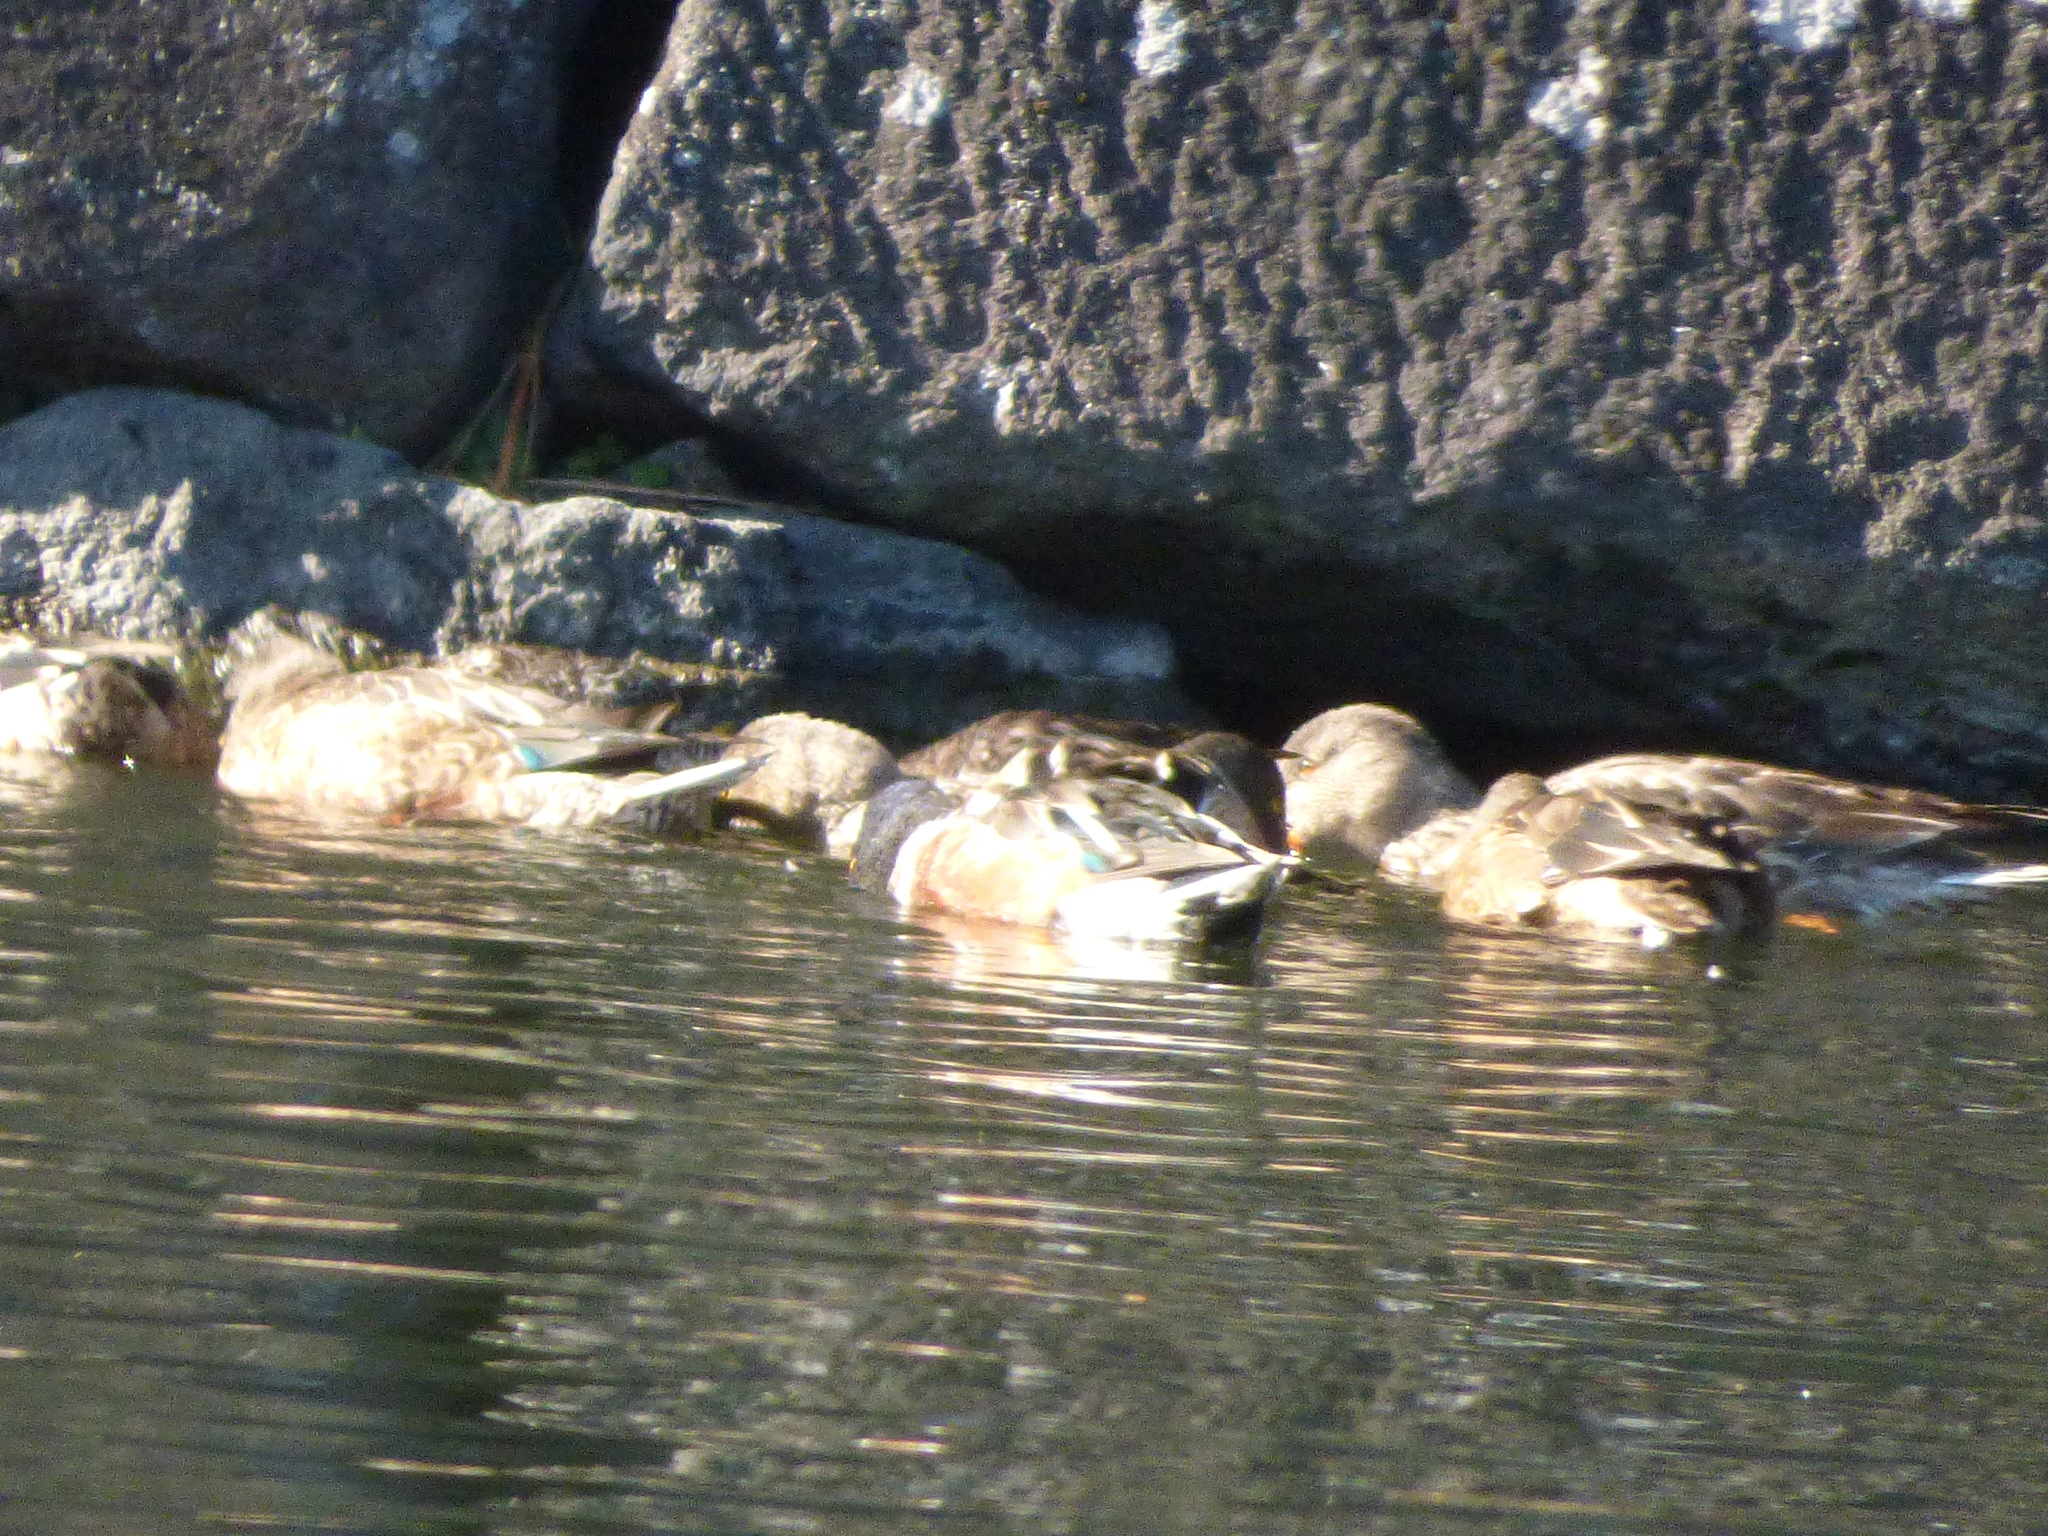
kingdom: Animalia
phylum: Chordata
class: Aves
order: Anseriformes
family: Anatidae
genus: Spatula
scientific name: Spatula clypeata
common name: Northern shoveler
